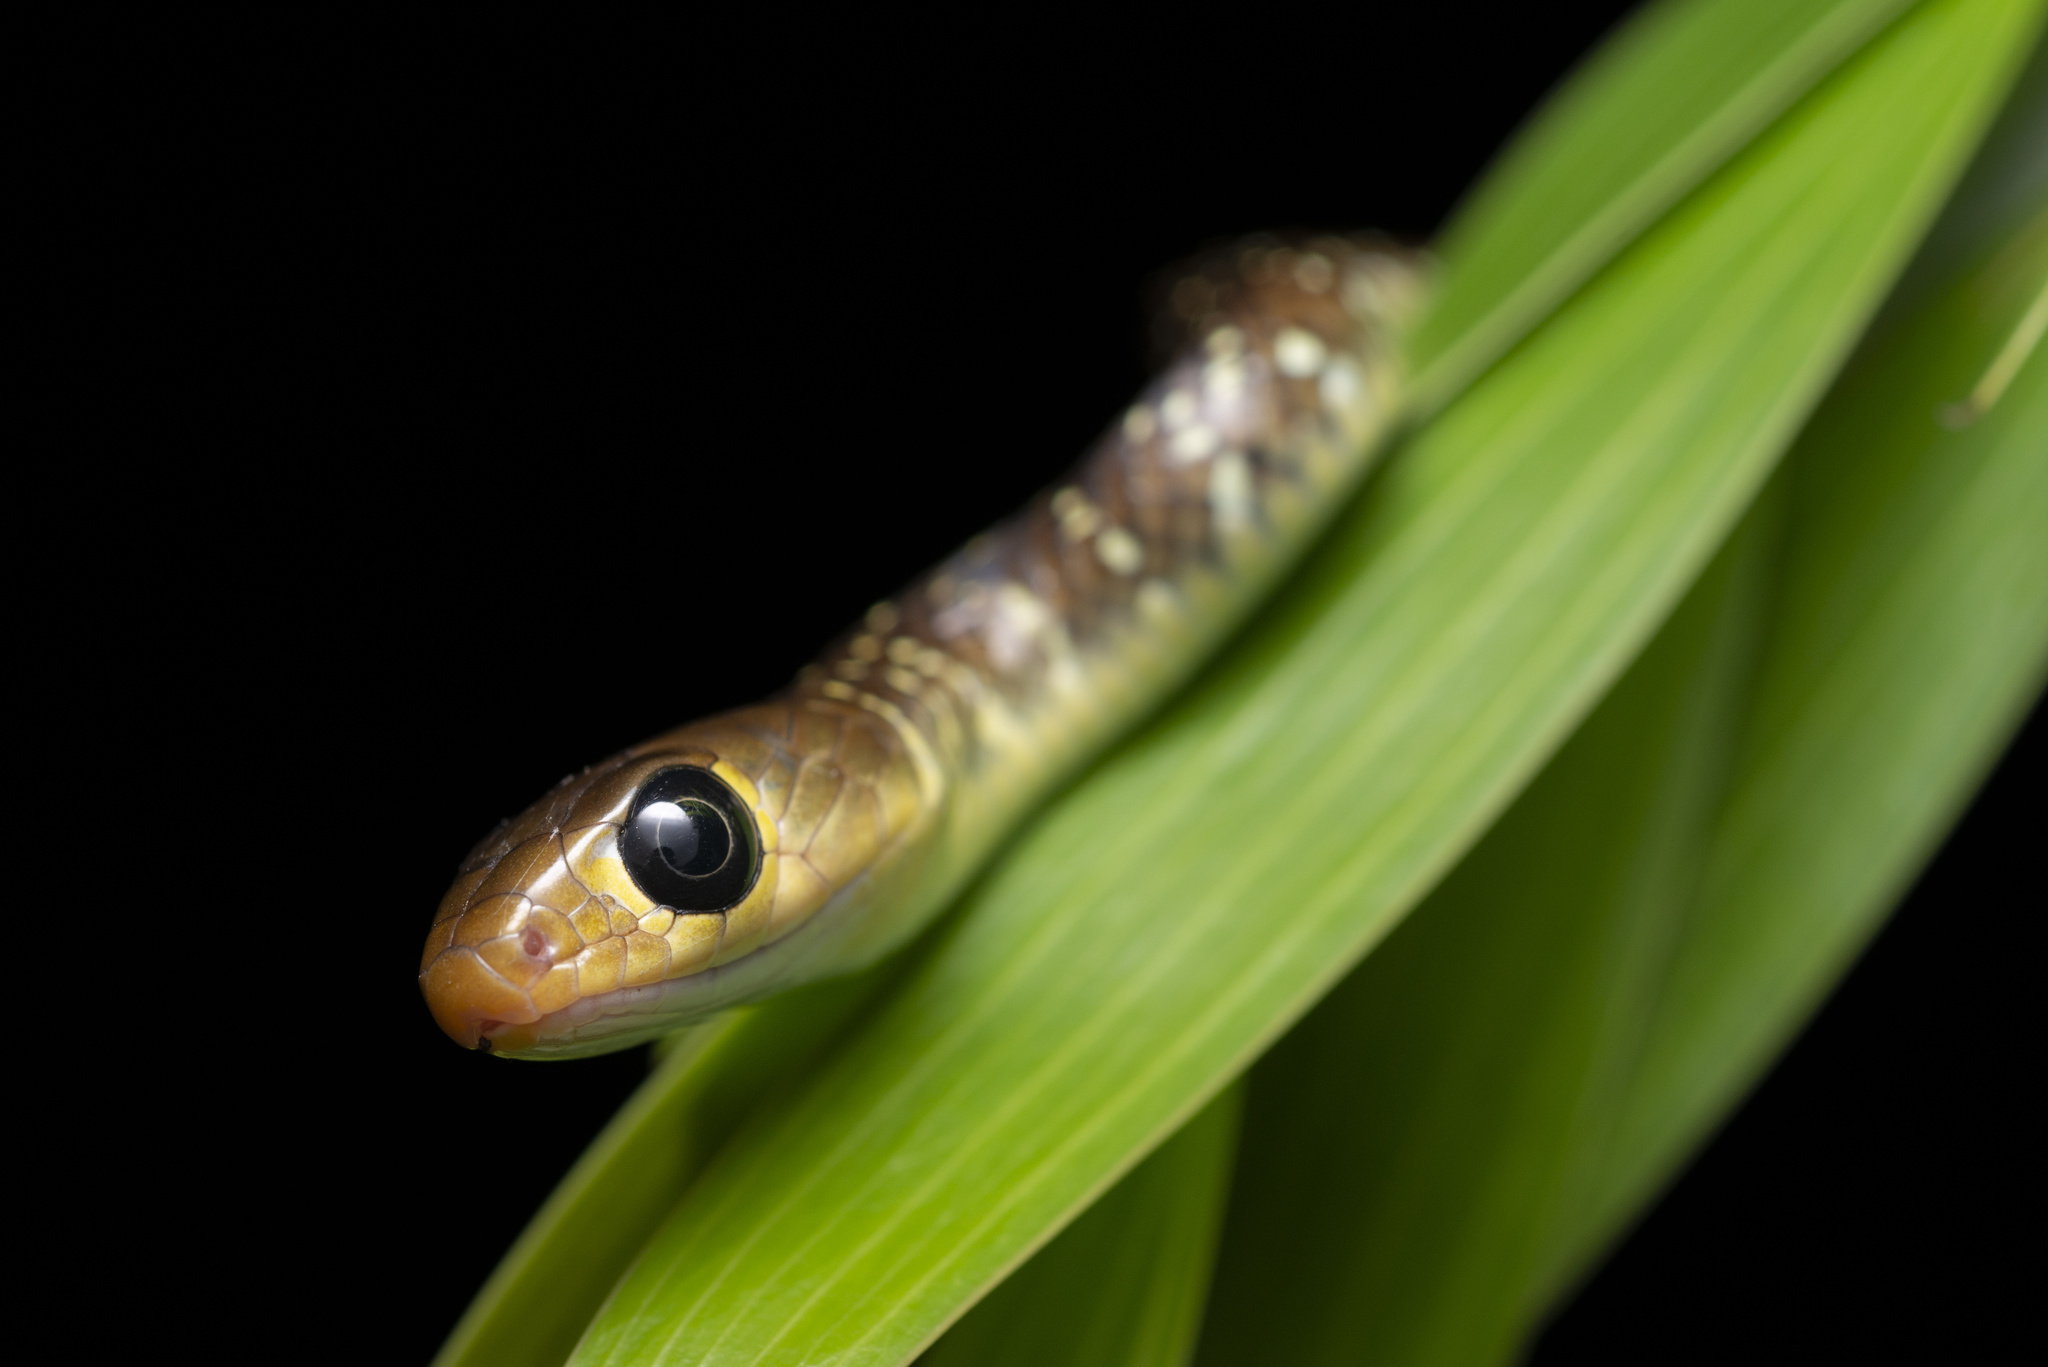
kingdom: Animalia
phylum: Chordata
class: Squamata
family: Colubridae
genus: Ptyas
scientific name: Ptyas korros
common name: Indo-chinese rat snake
